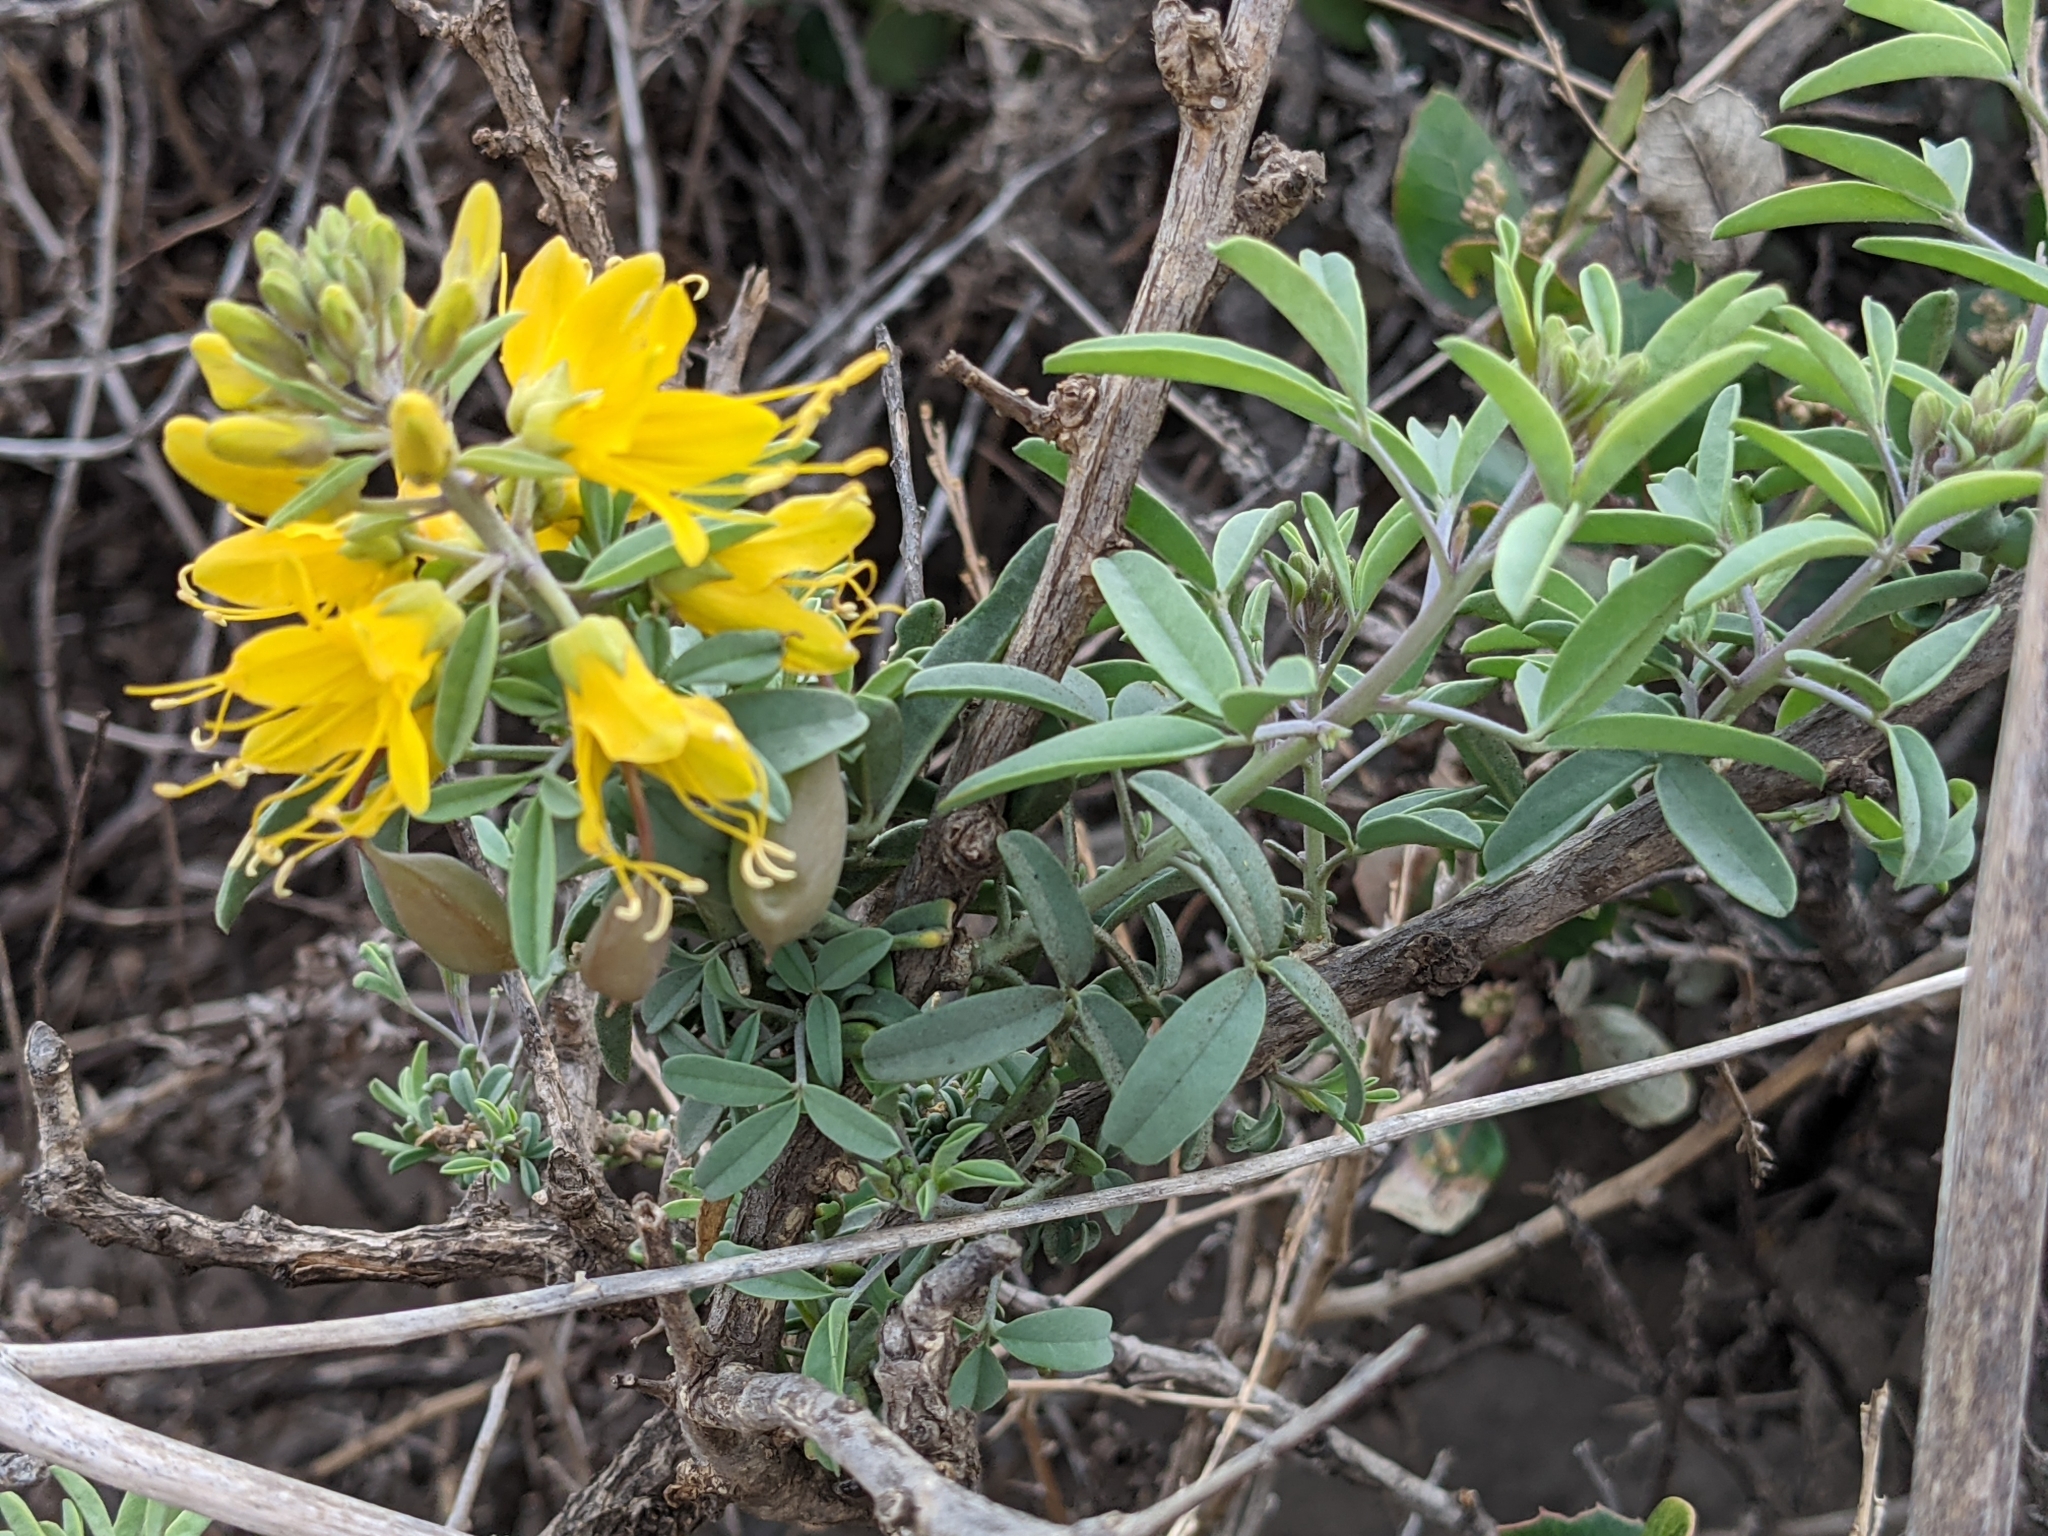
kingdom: Plantae
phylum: Tracheophyta
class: Magnoliopsida
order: Brassicales
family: Cleomaceae
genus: Cleomella
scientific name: Cleomella arborea
